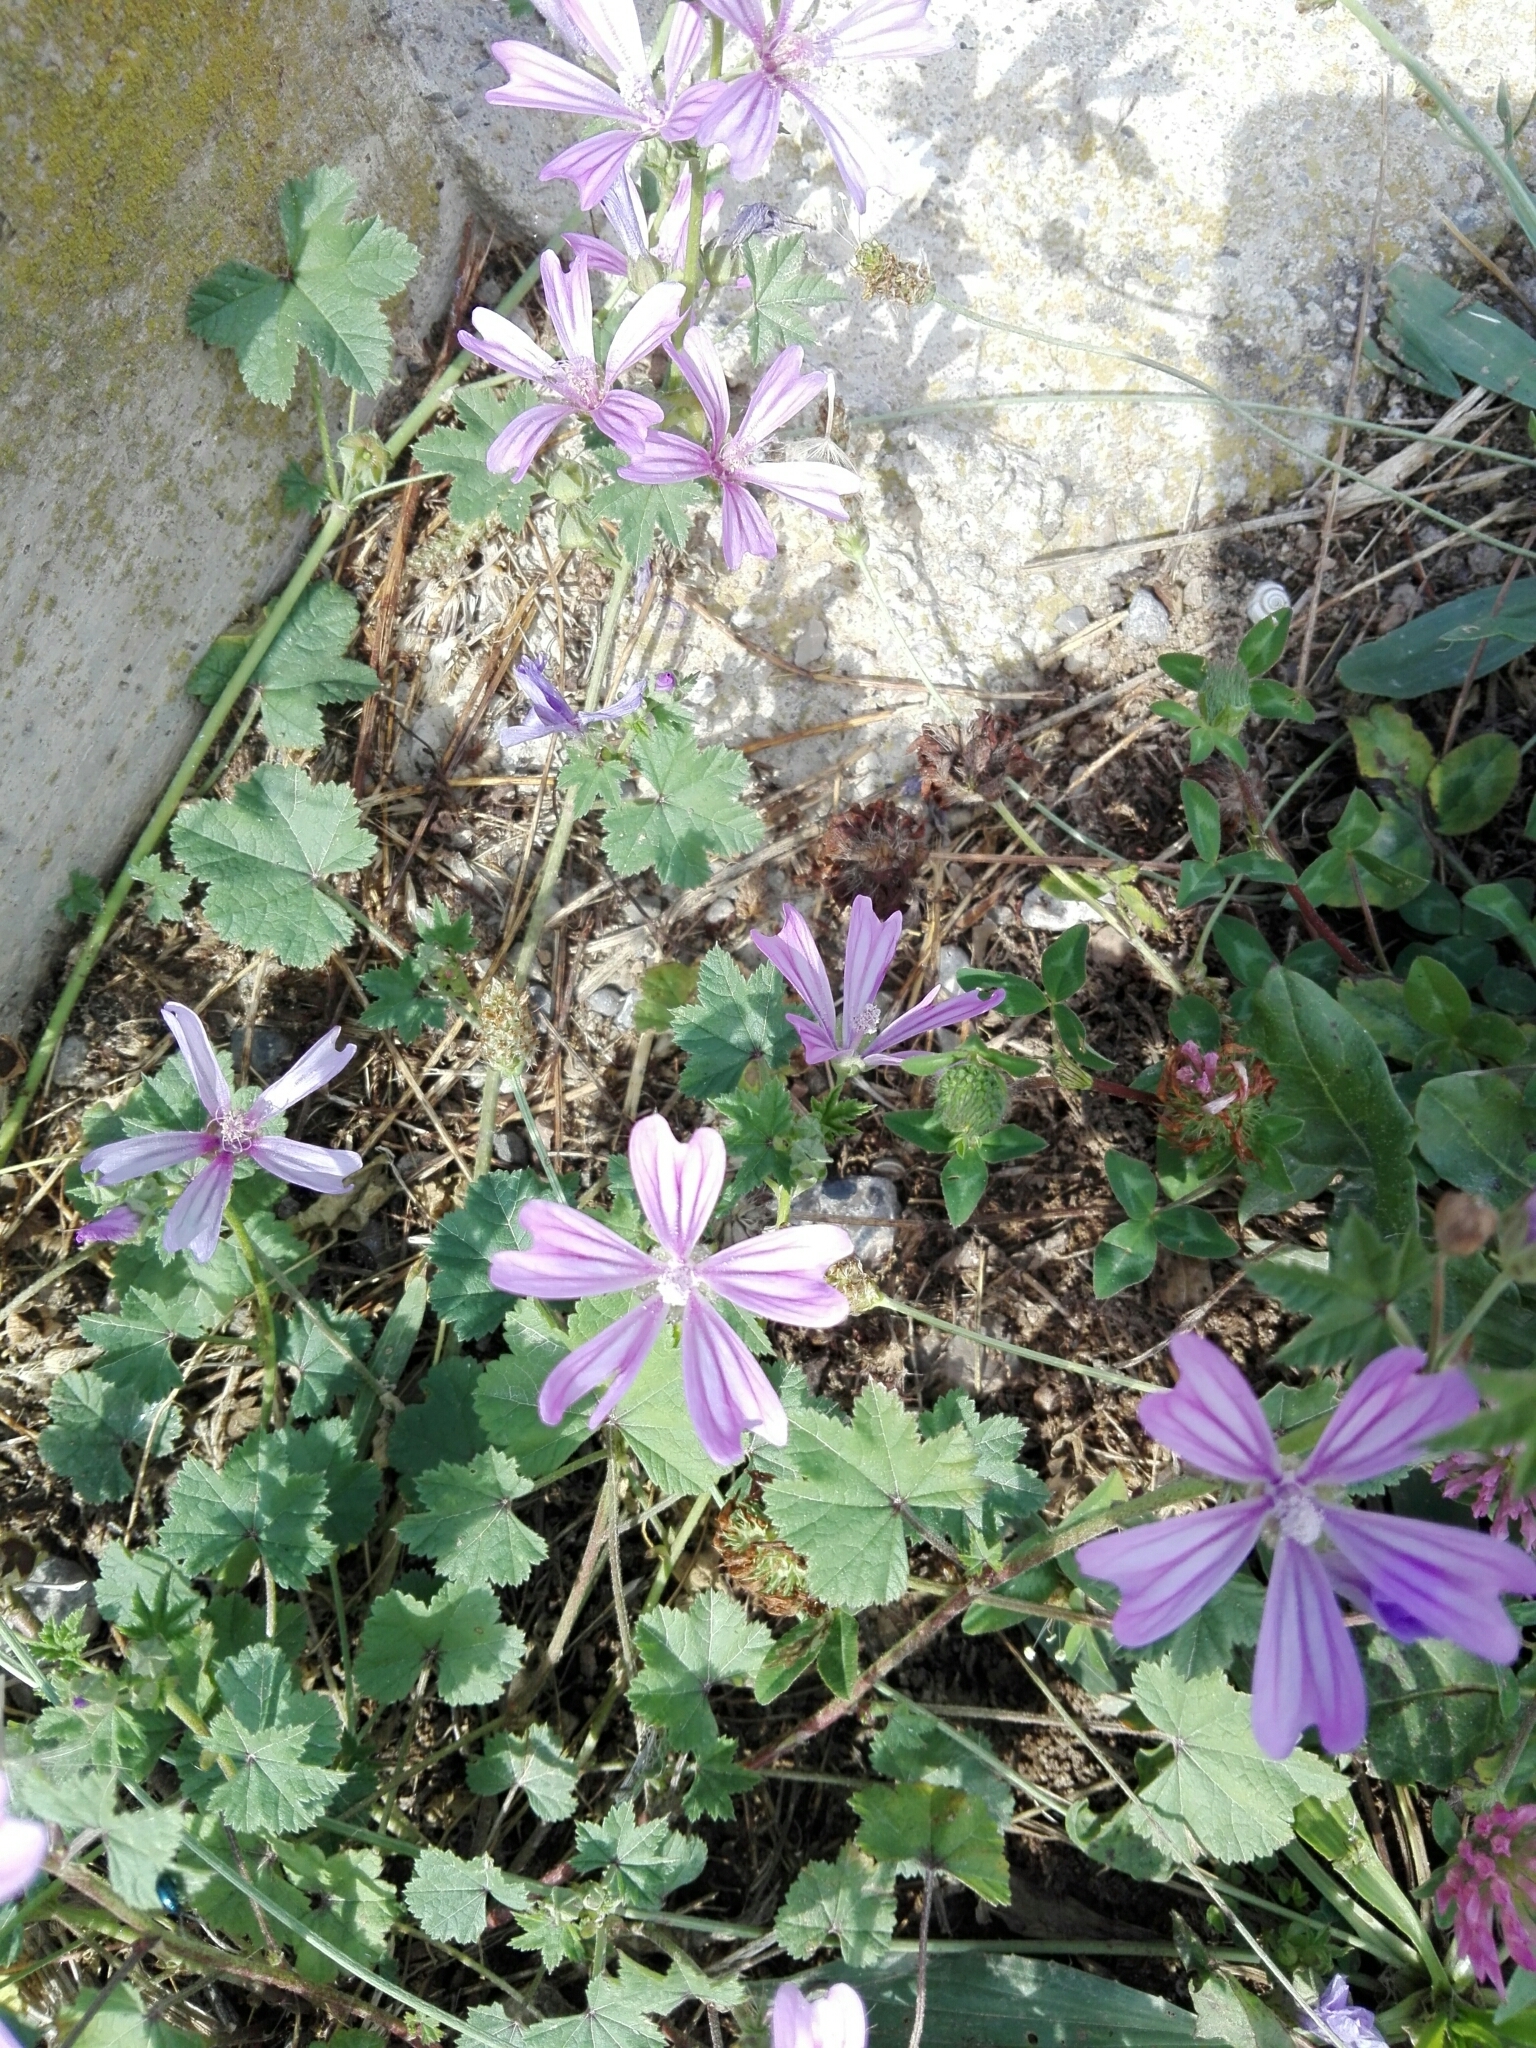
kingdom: Plantae
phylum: Tracheophyta
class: Magnoliopsida
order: Malvales
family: Malvaceae
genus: Malva
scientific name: Malva sylvestris
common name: Common mallow
